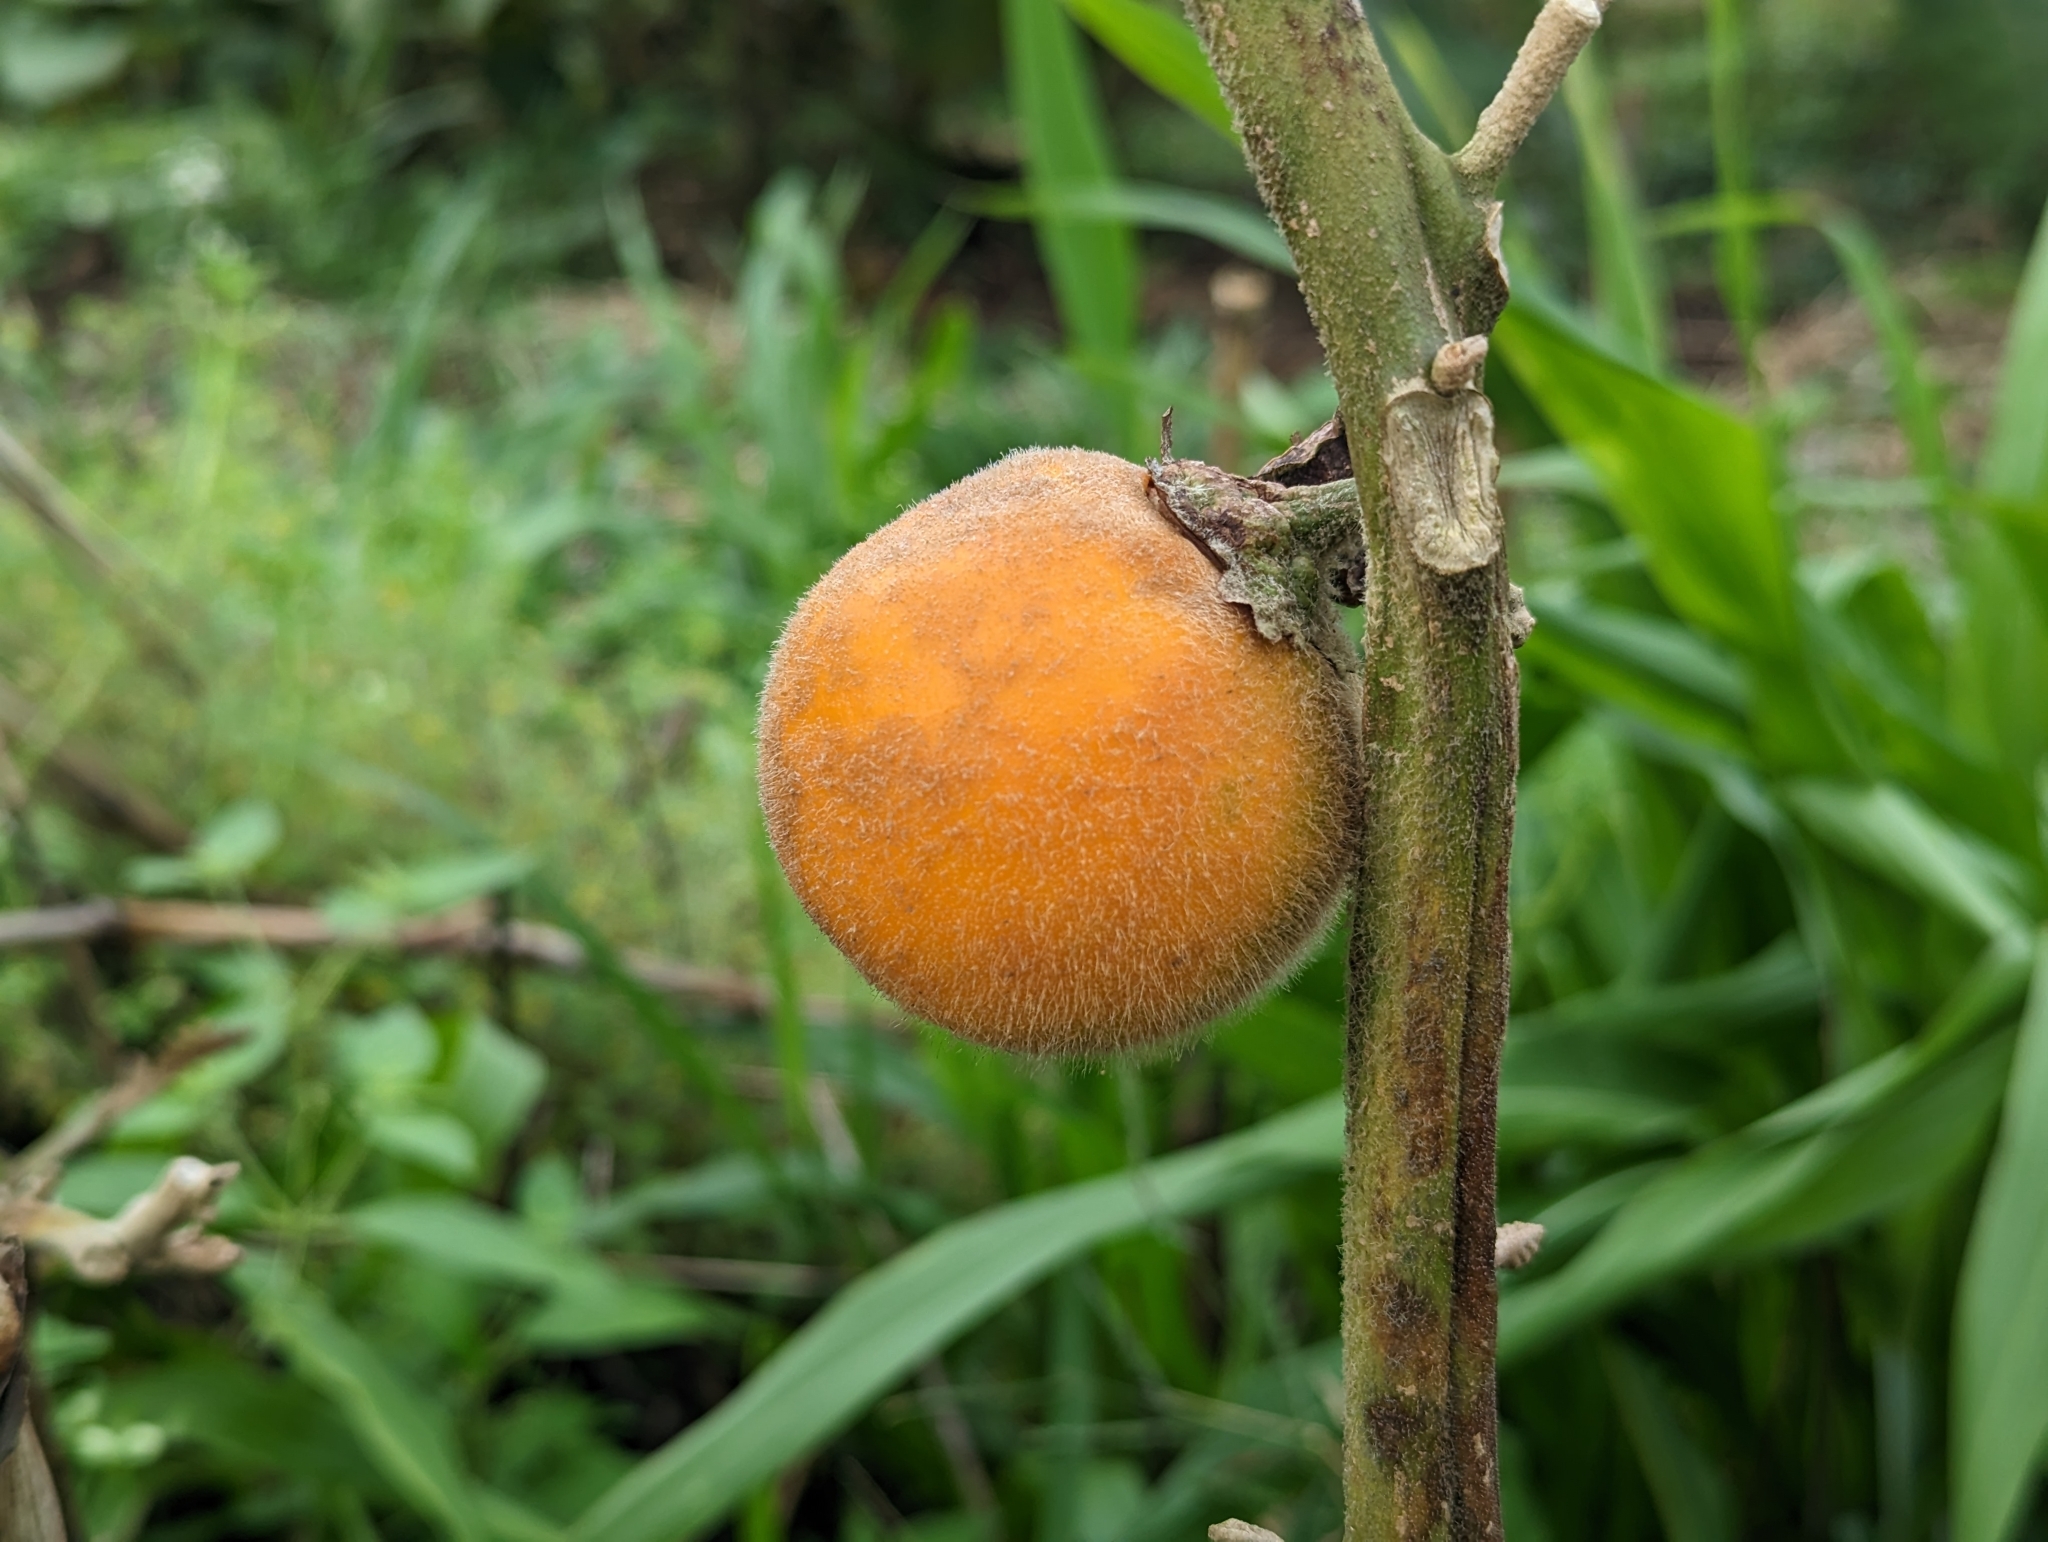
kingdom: Plantae
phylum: Tracheophyta
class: Magnoliopsida
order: Solanales
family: Solanaceae
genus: Solanum
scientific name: Solanum quitoense
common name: Quito-orange
